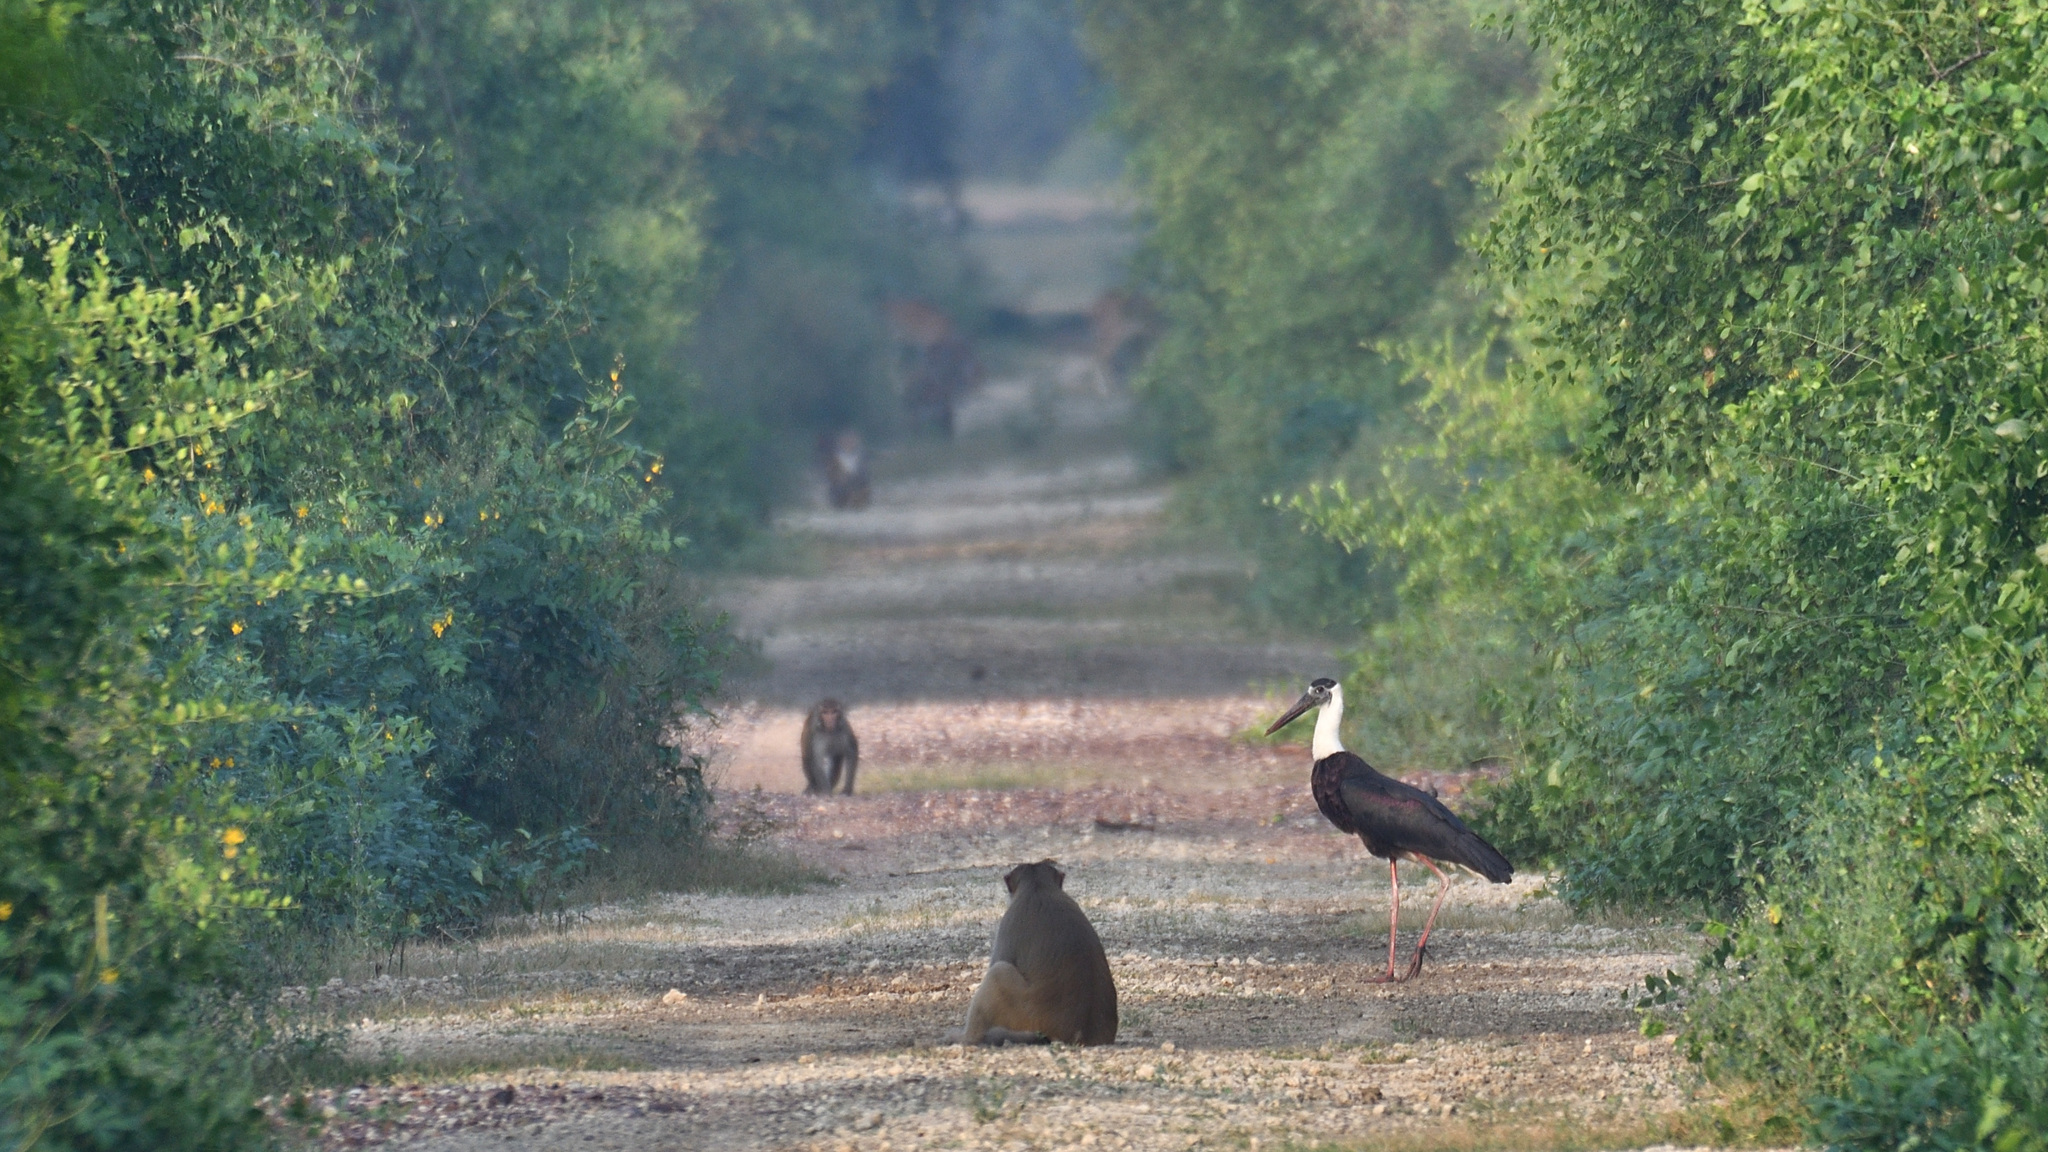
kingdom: Animalia
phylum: Chordata
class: Aves
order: Ciconiiformes
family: Ciconiidae
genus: Ciconia
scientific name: Ciconia episcopus
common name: Woolly-necked stork
